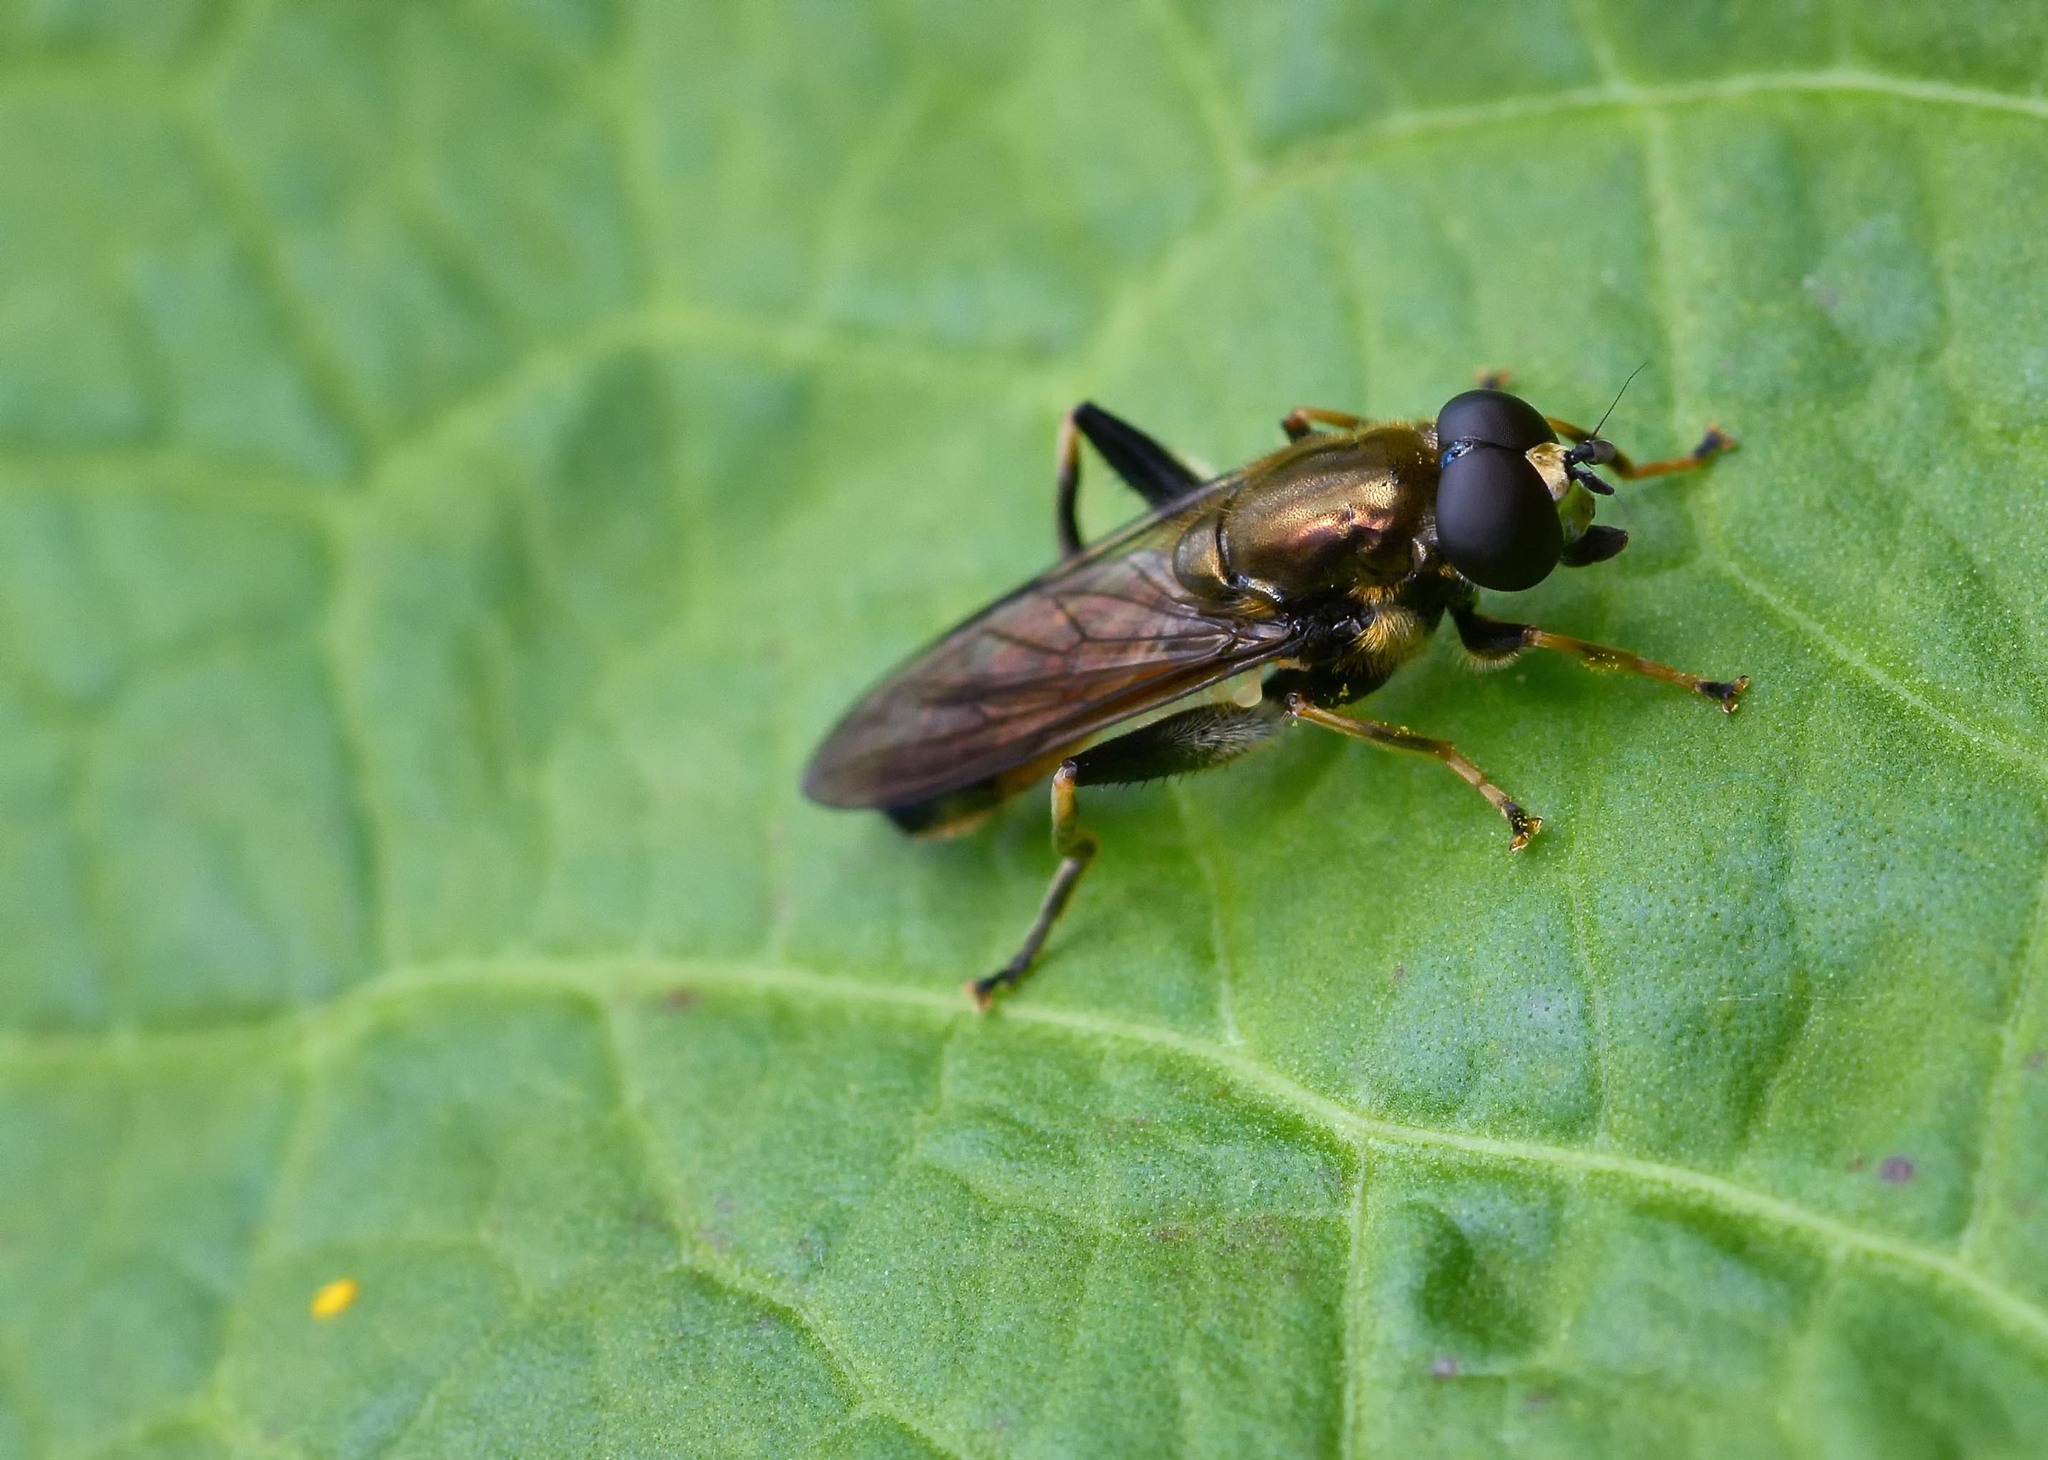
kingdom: Animalia
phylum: Arthropoda
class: Insecta
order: Diptera
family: Syrphidae
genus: Xylota
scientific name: Xylota segnis
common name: Brown-toed forest fly
